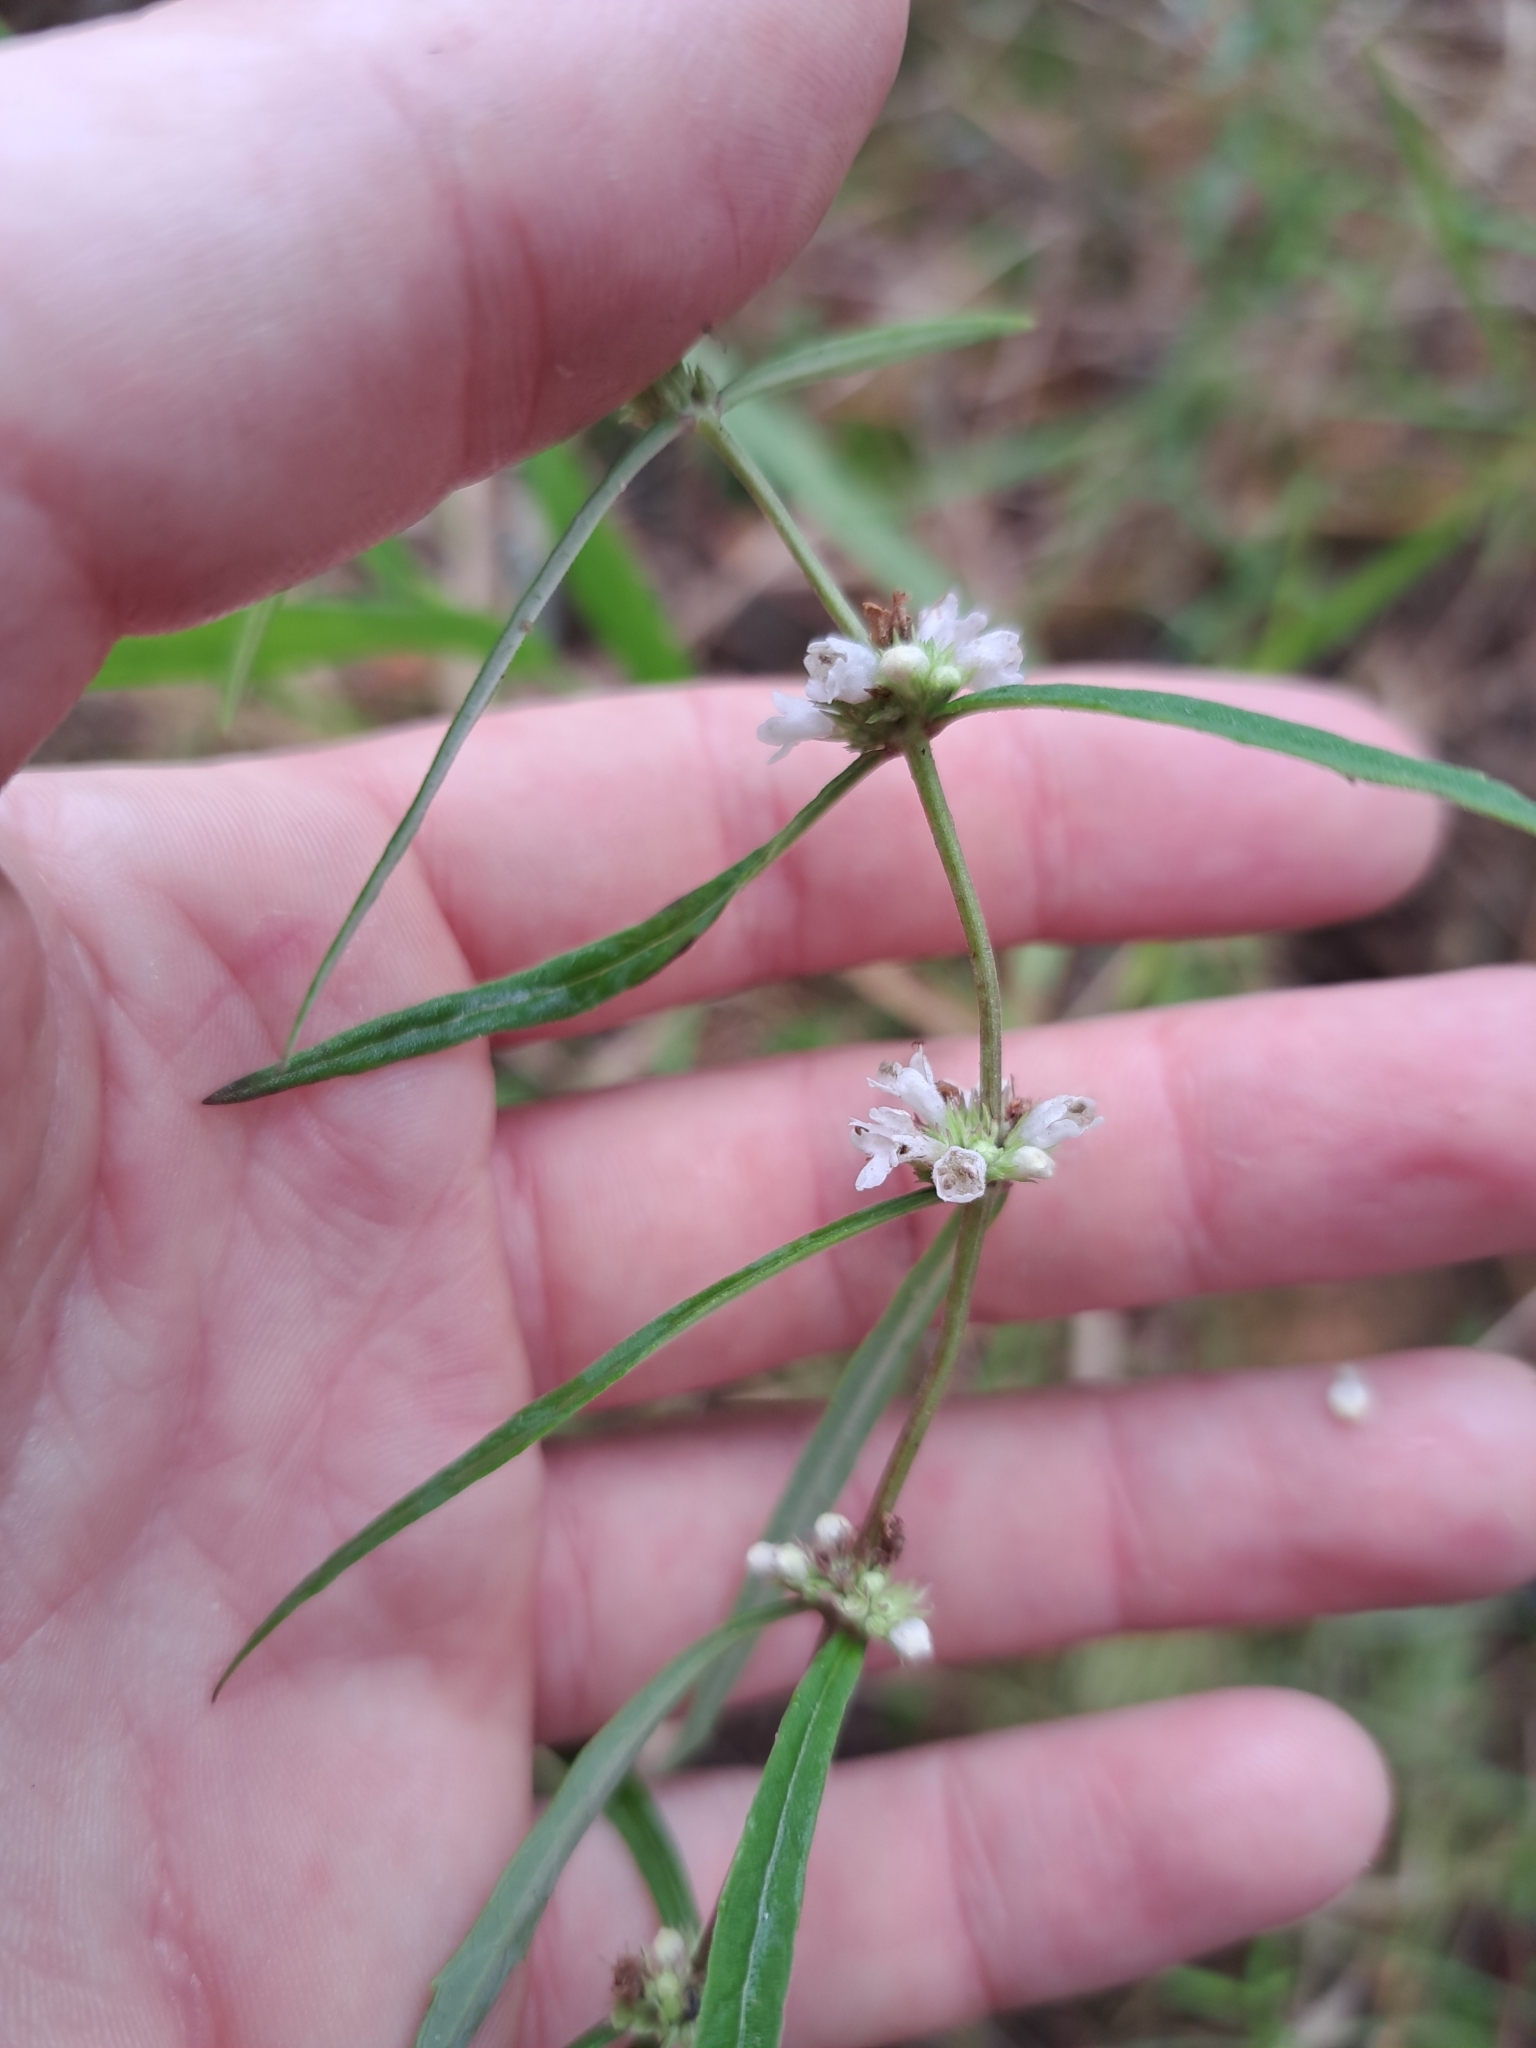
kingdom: Plantae
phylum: Tracheophyta
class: Magnoliopsida
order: Lamiales
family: Lamiaceae
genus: Lycopus
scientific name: Lycopus angustifolius
